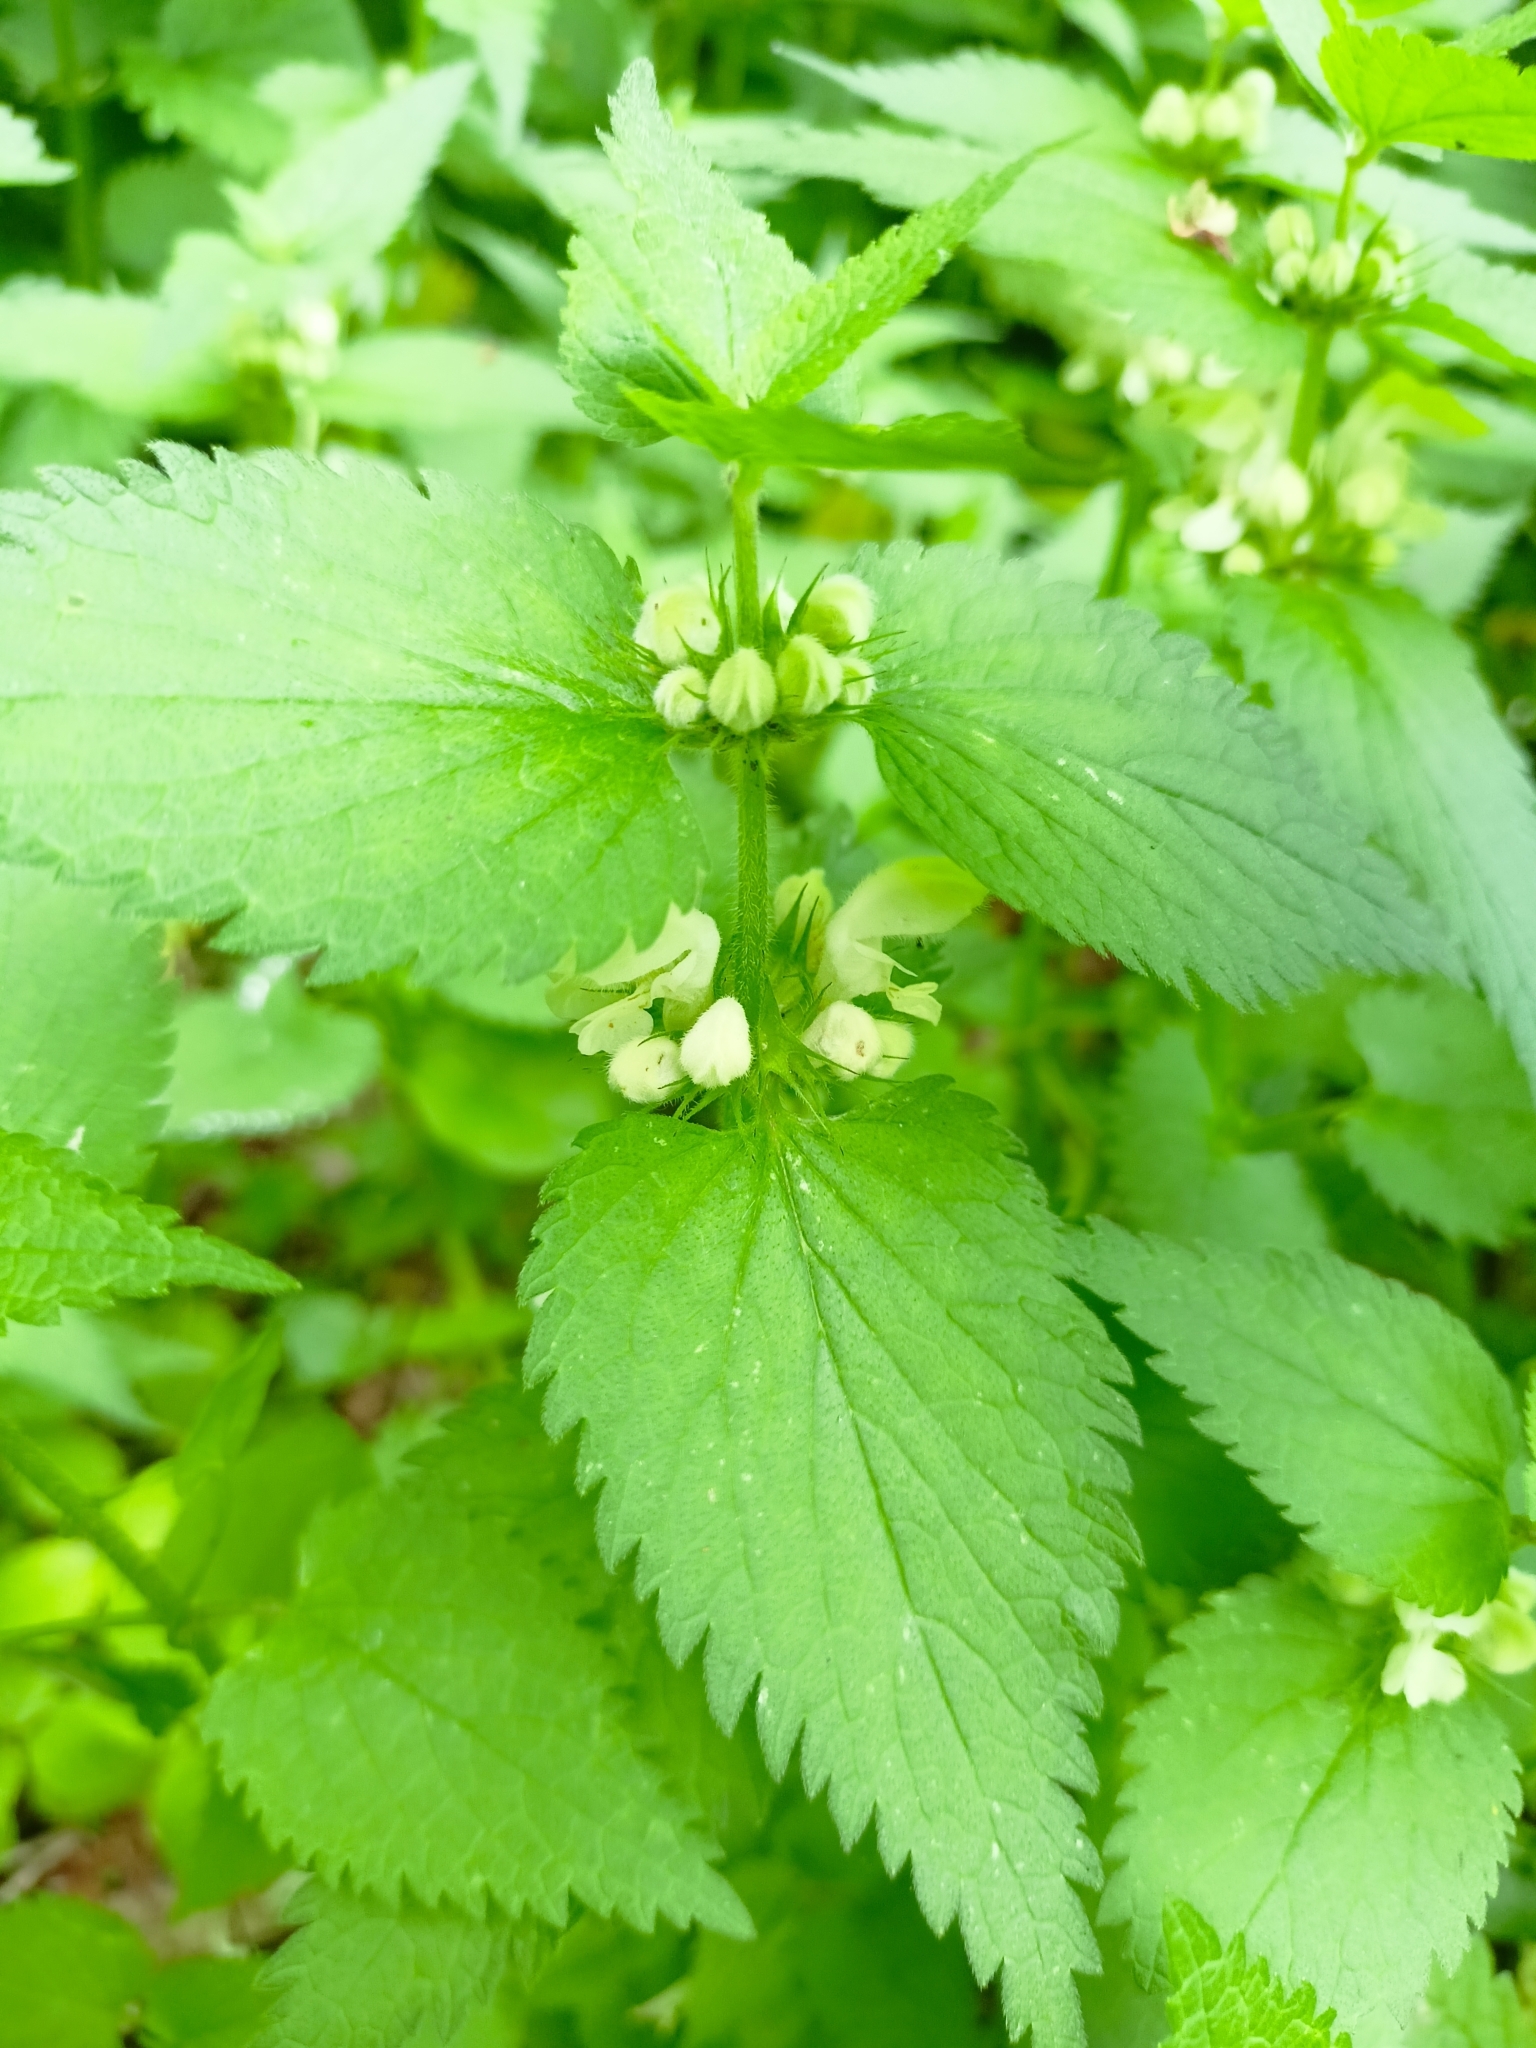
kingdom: Plantae
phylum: Tracheophyta
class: Magnoliopsida
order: Lamiales
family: Lamiaceae
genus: Lamium
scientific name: Lamium album
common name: White dead-nettle
